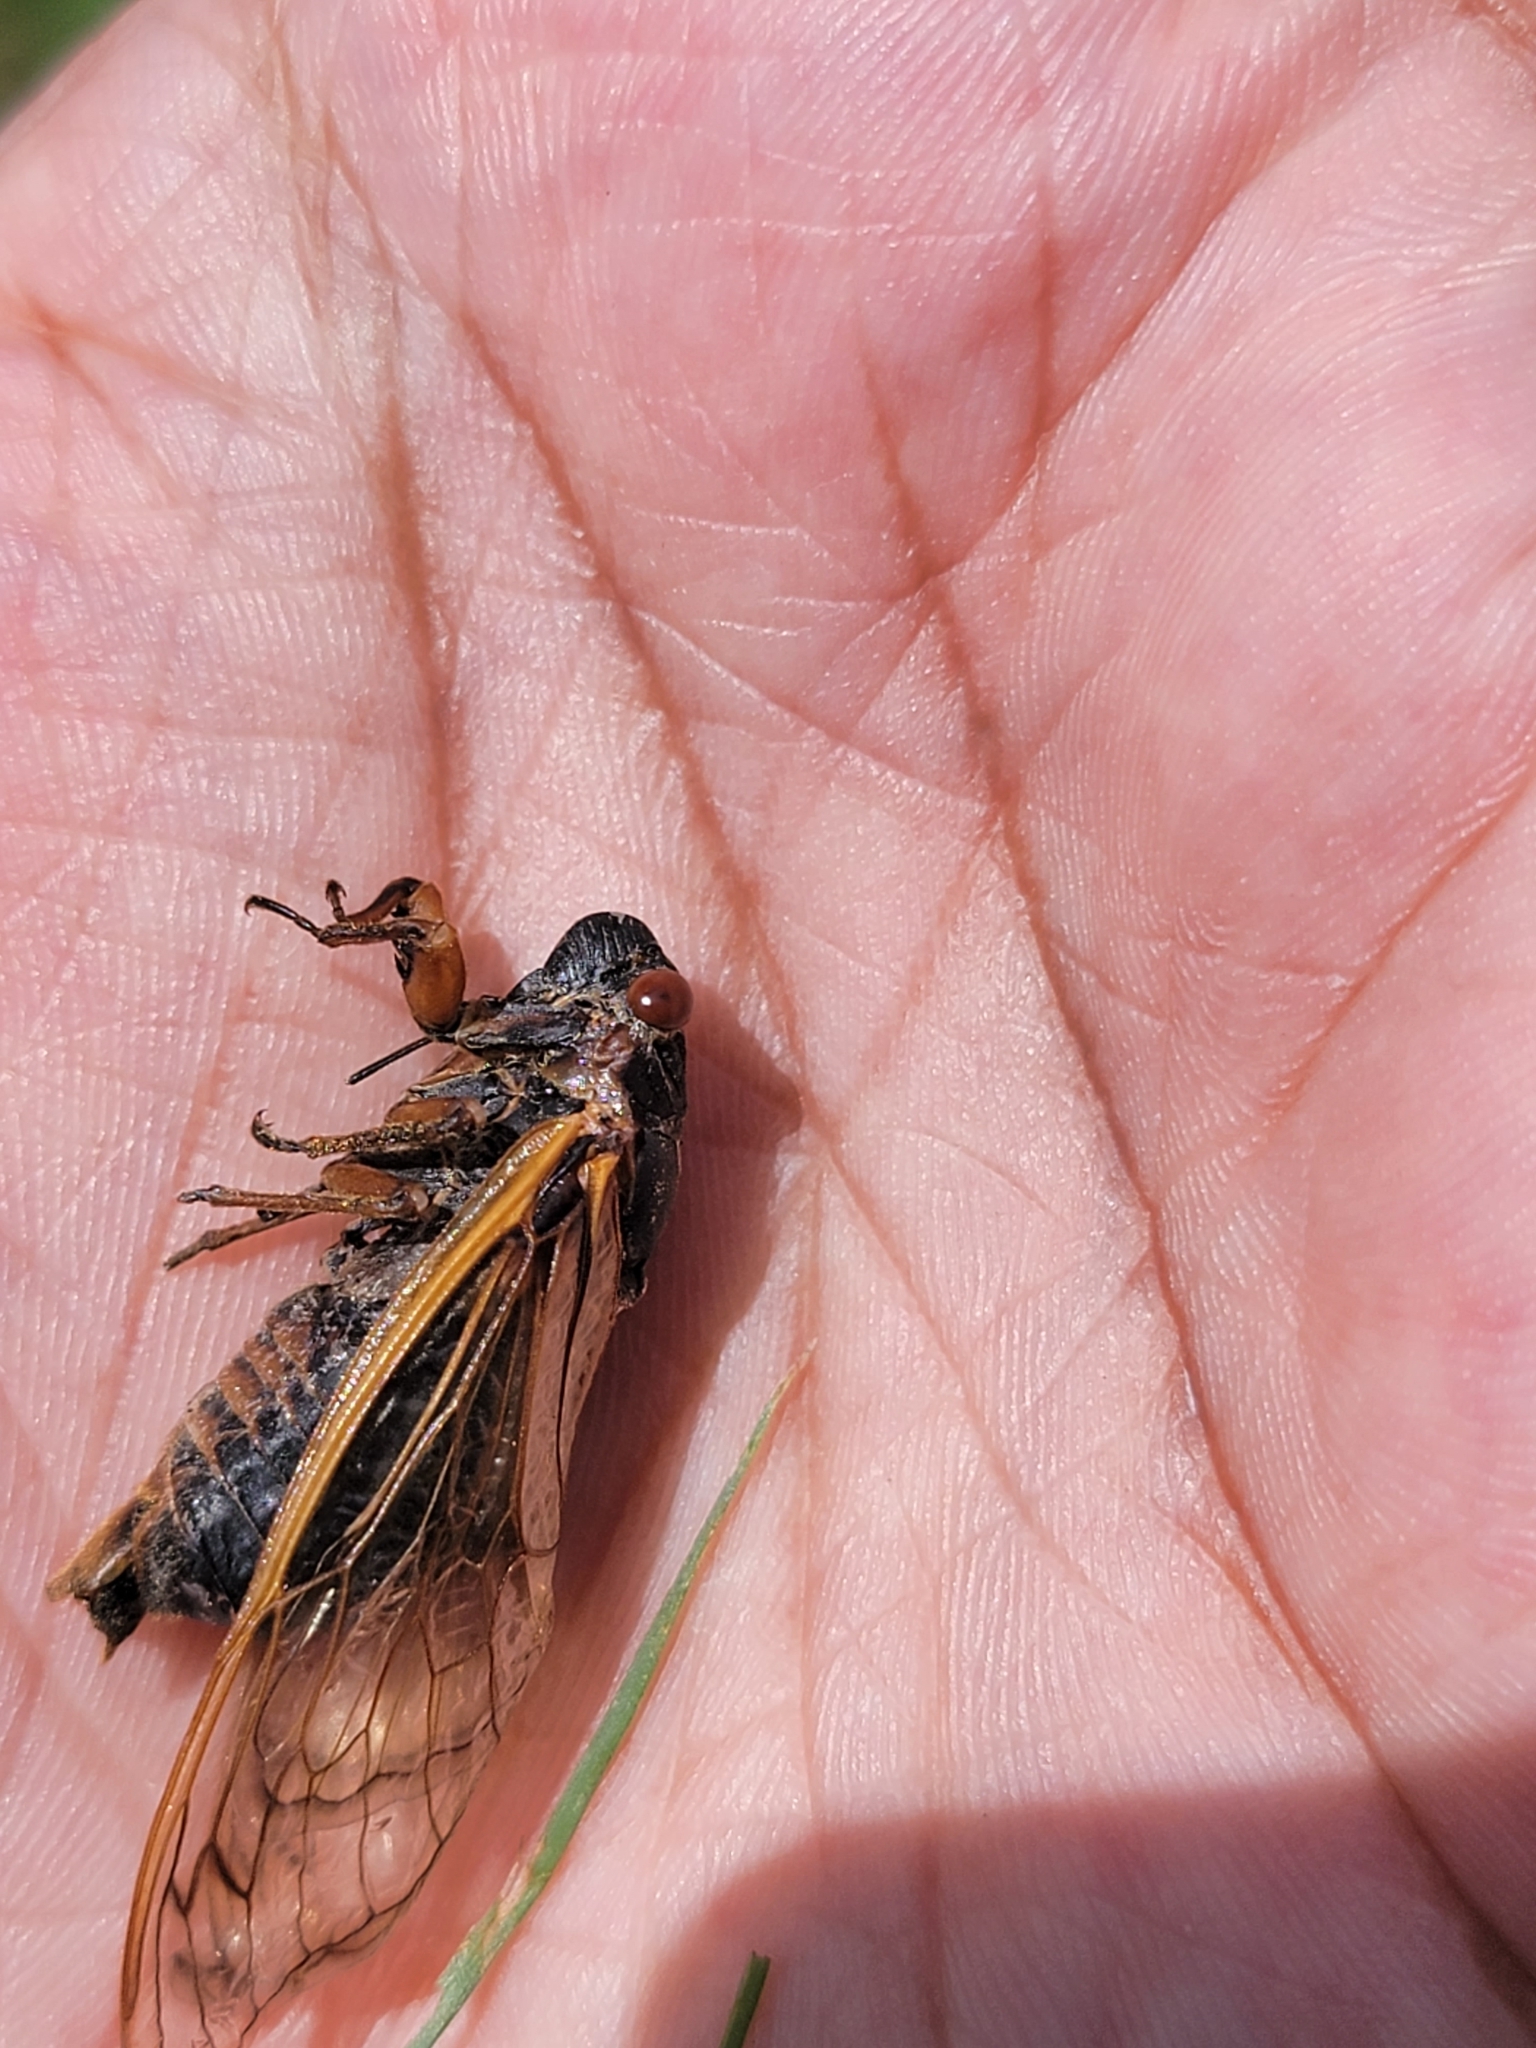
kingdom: Animalia
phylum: Arthropoda
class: Insecta
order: Hemiptera
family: Cicadidae
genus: Magicicada
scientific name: Magicicada septendecim
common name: Periodical cicada
